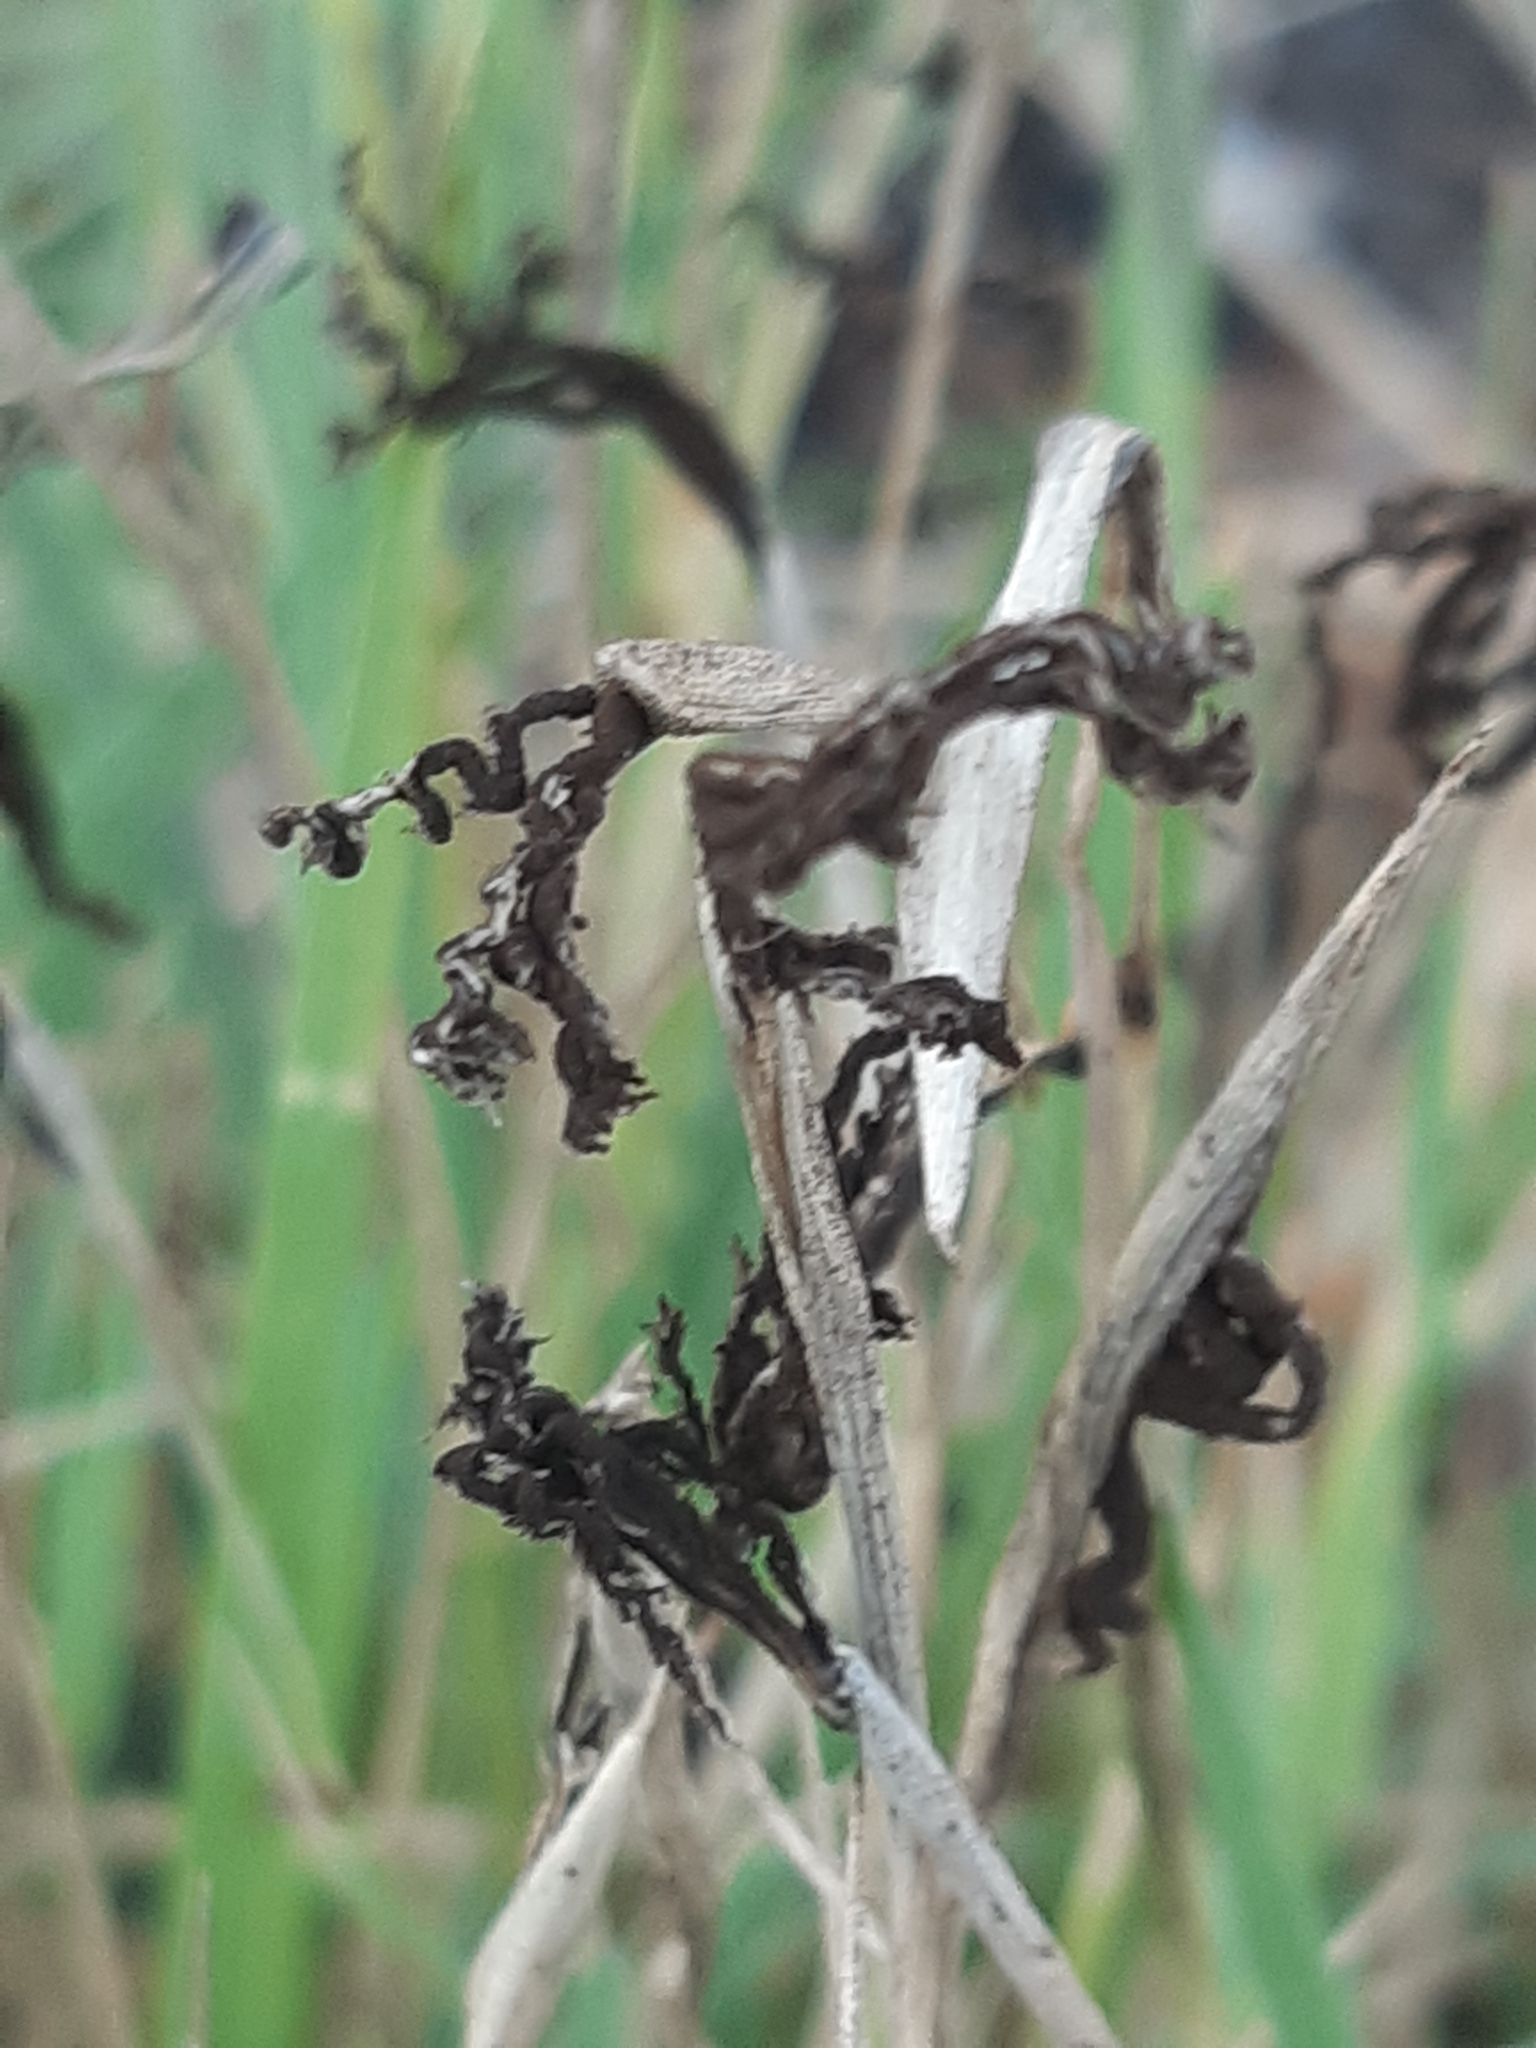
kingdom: Fungi
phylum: Basidiomycota
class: Ustilaginomycetes
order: Ustilaginales
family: Ustilaginaceae
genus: Ustilago
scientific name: Ustilago cynodontis
